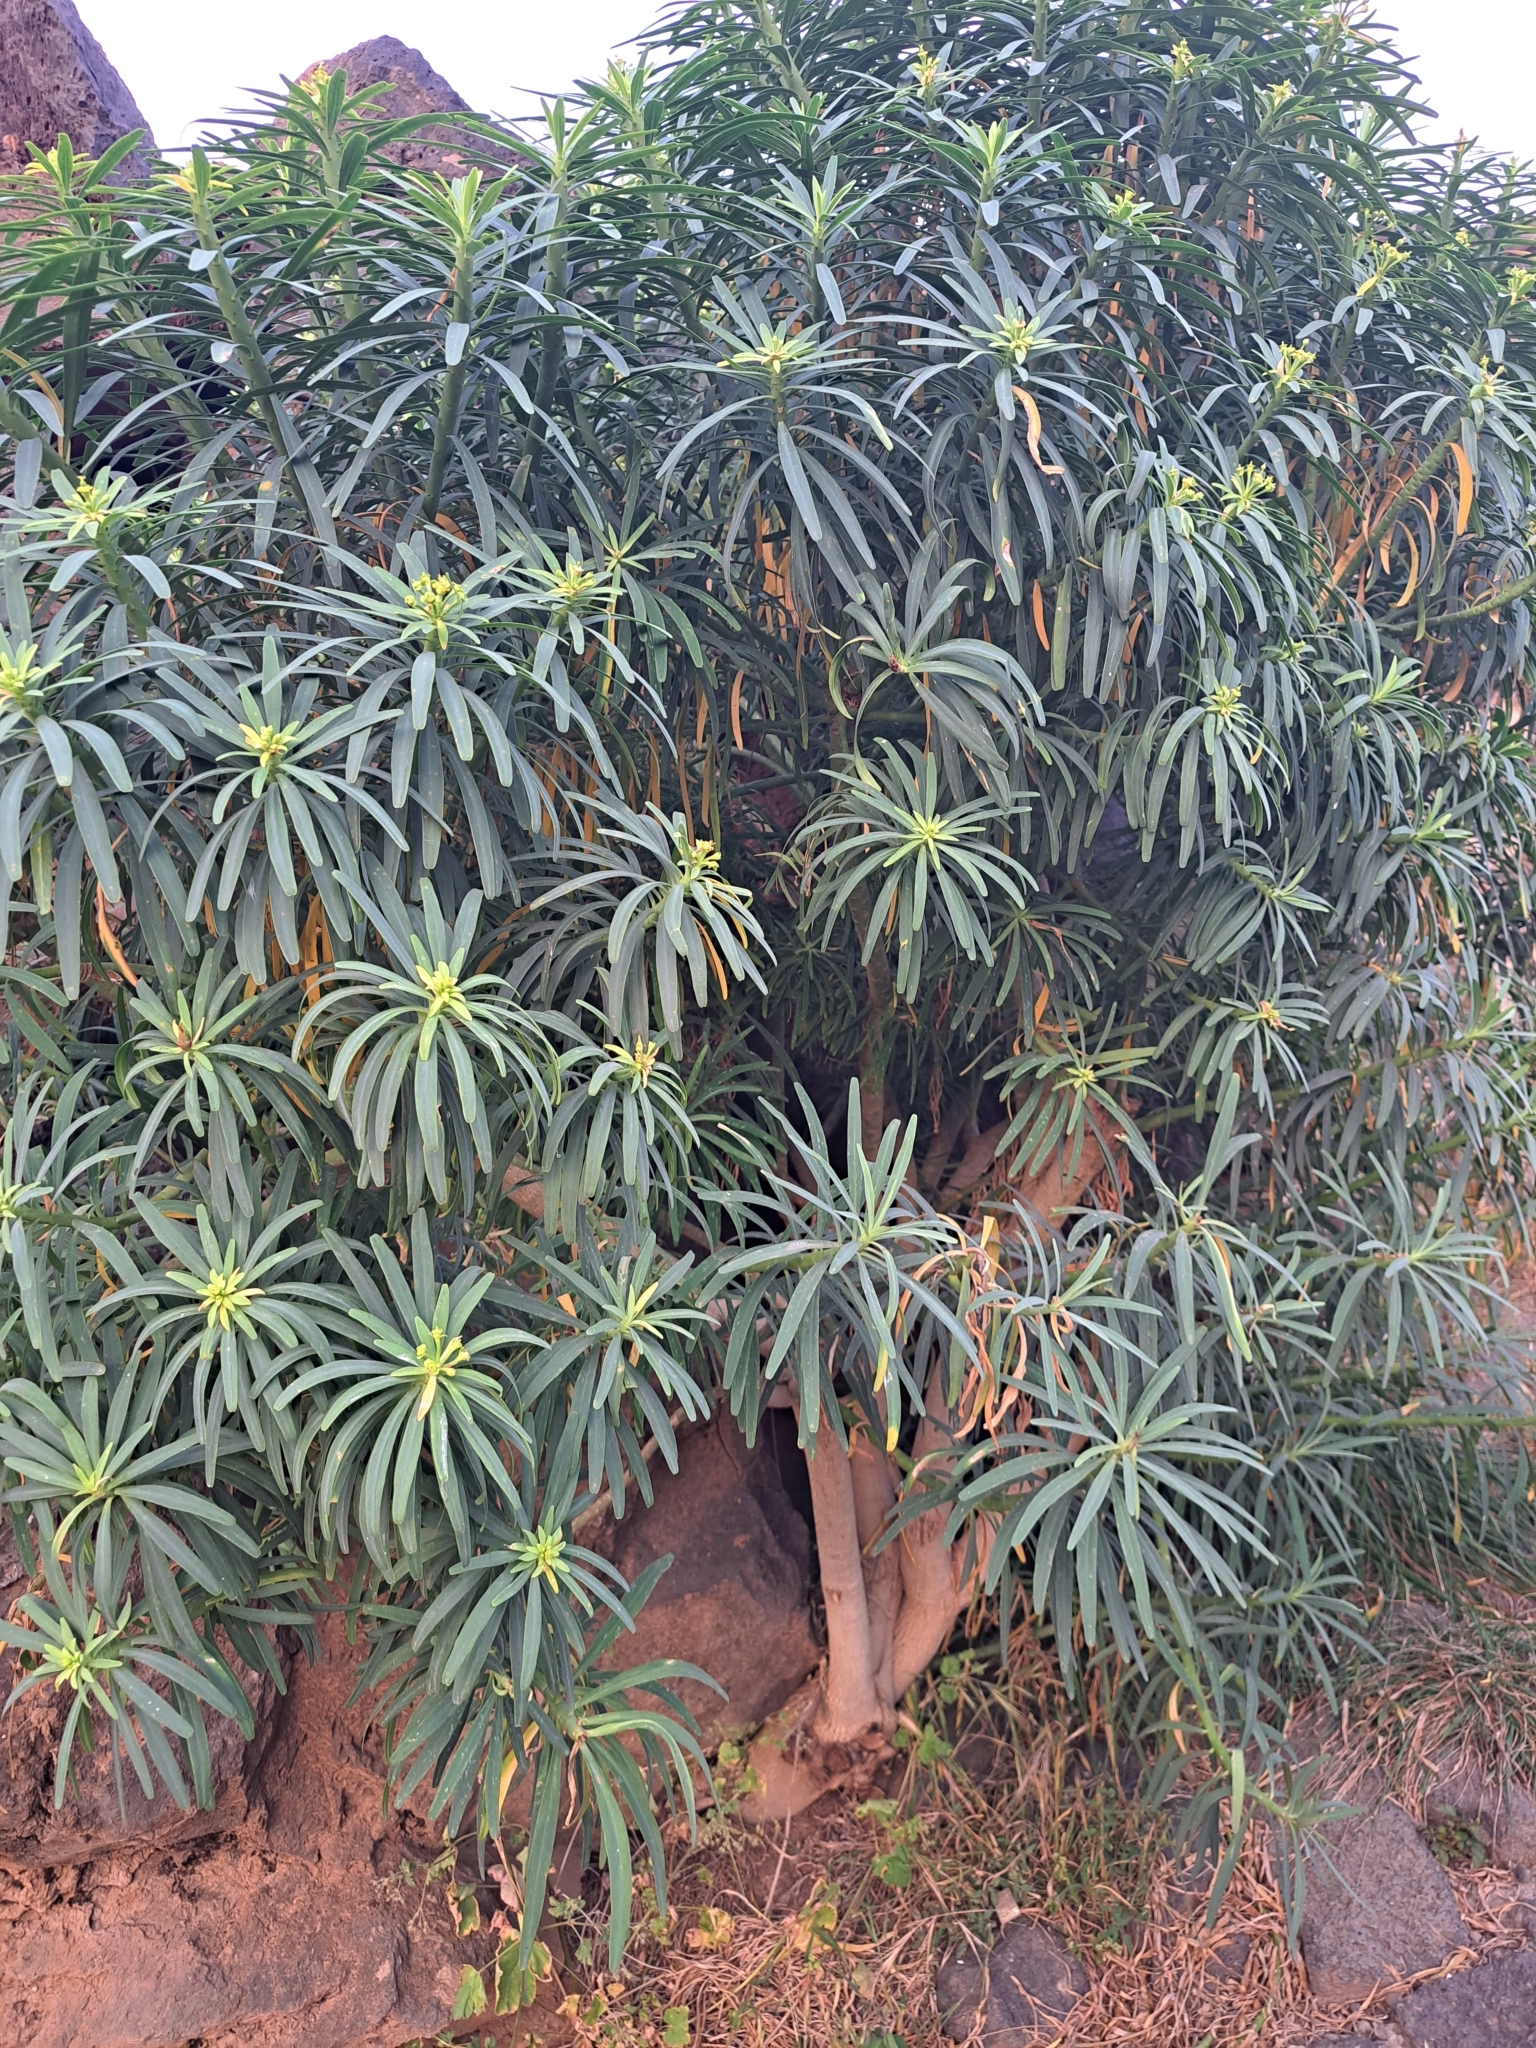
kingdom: Plantae
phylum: Tracheophyta
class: Magnoliopsida
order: Malpighiales
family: Euphorbiaceae
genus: Euphorbia
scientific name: Euphorbia lamarckii
